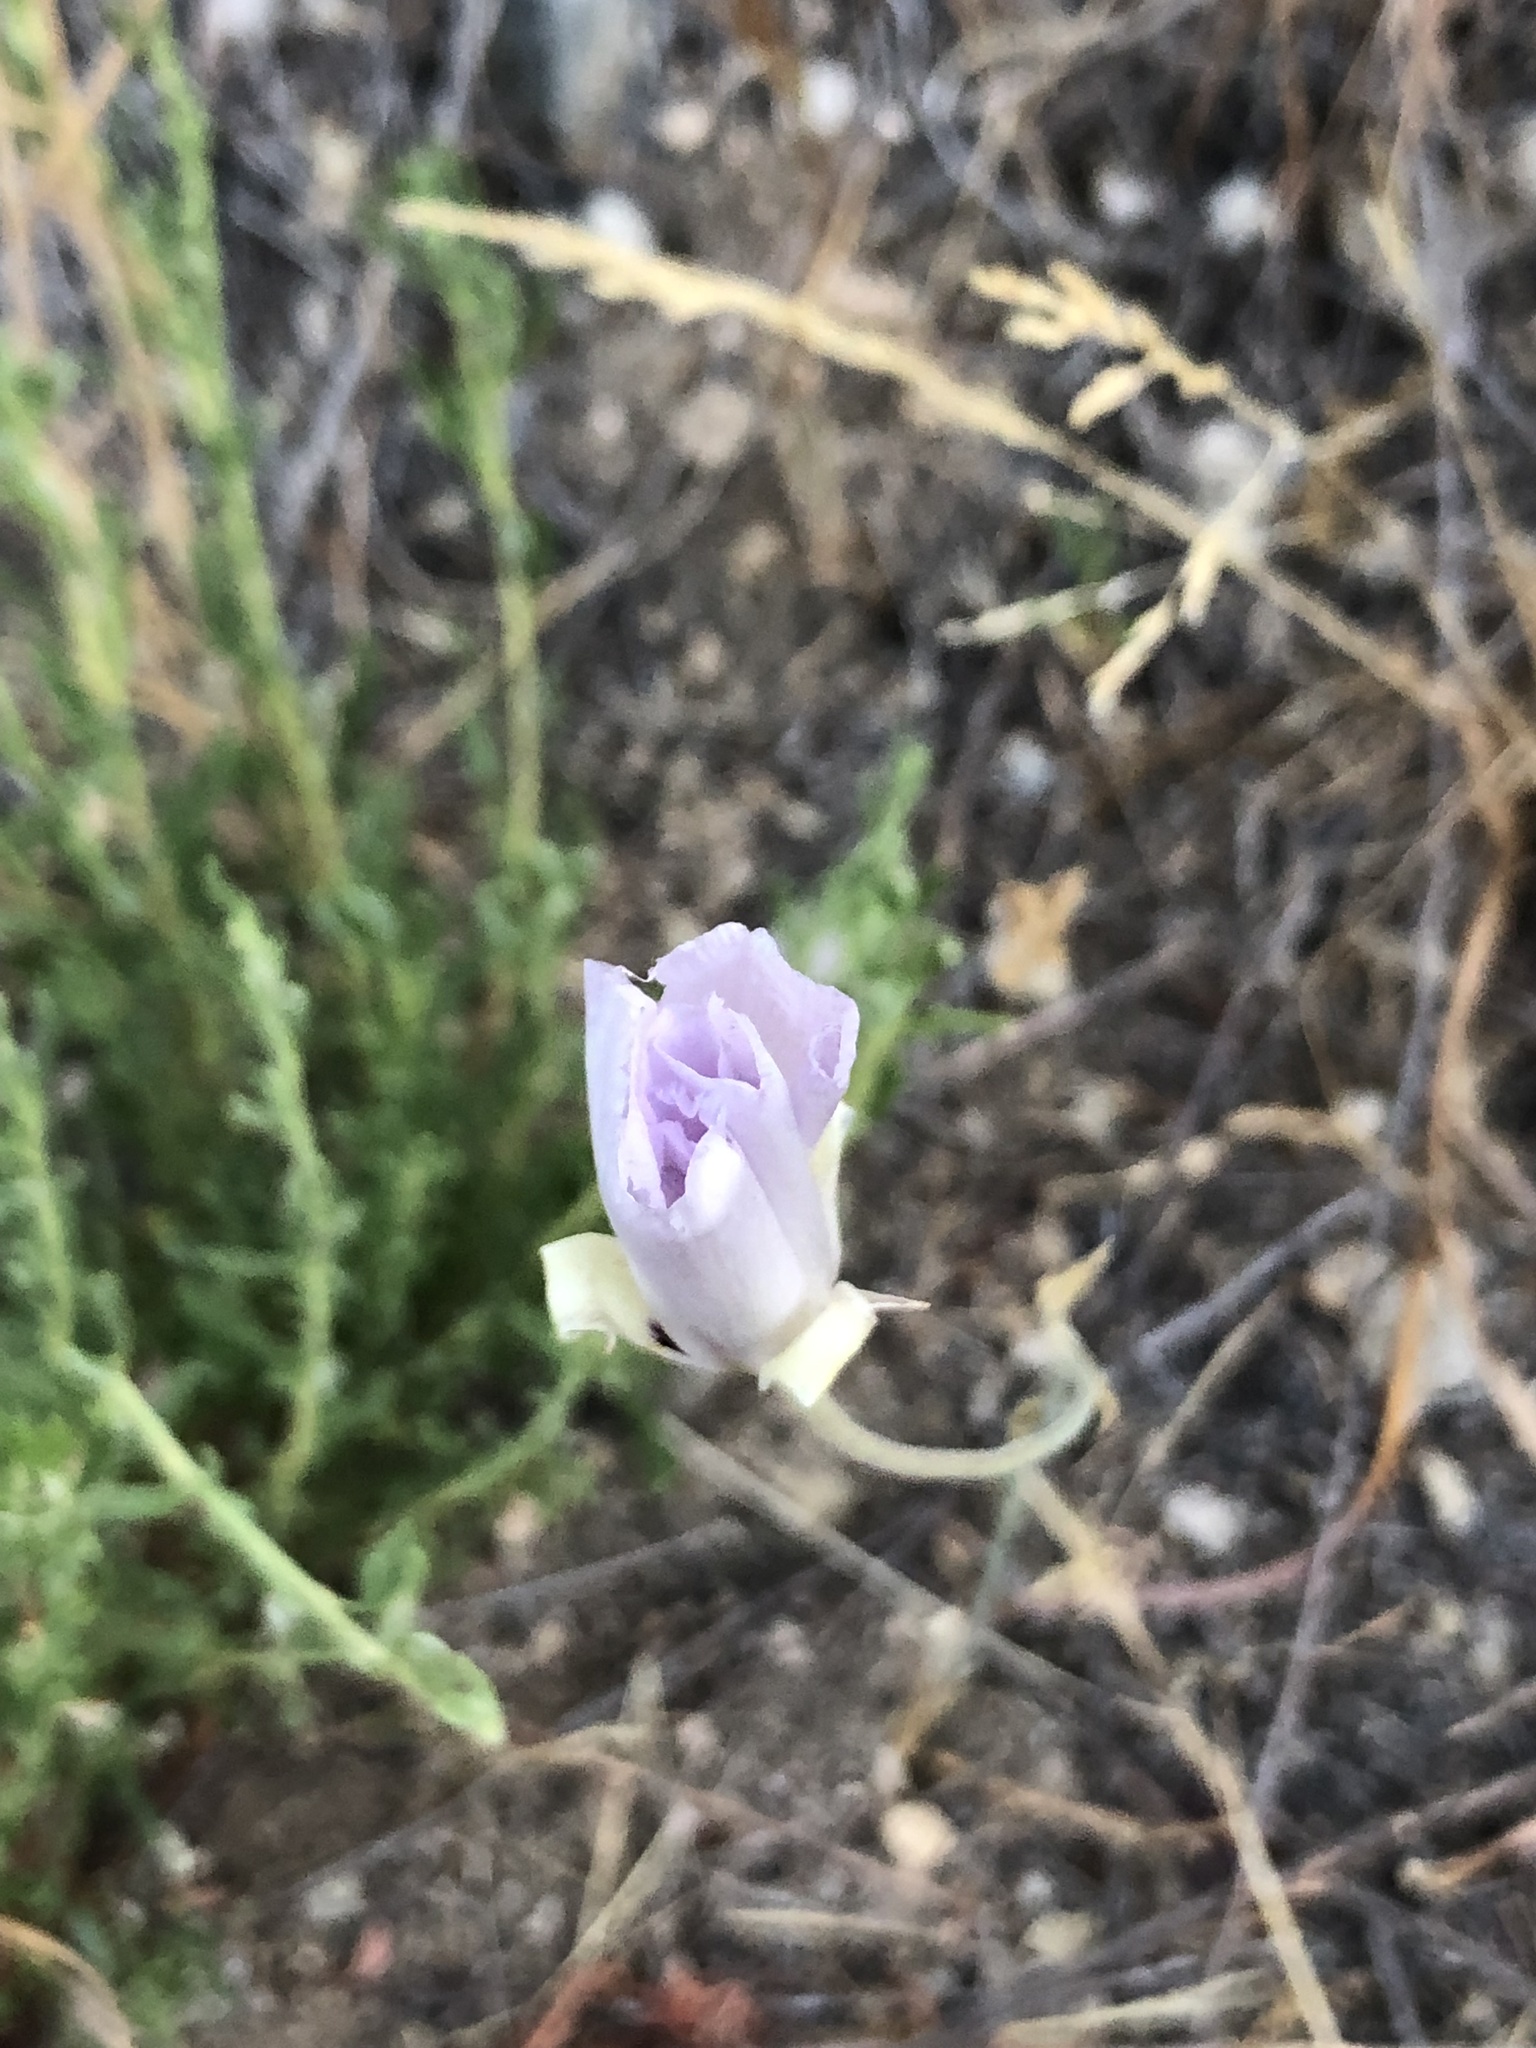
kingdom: Plantae
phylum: Tracheophyta
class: Liliopsida
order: Liliales
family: Liliaceae
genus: Calochortus
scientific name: Calochortus splendens
